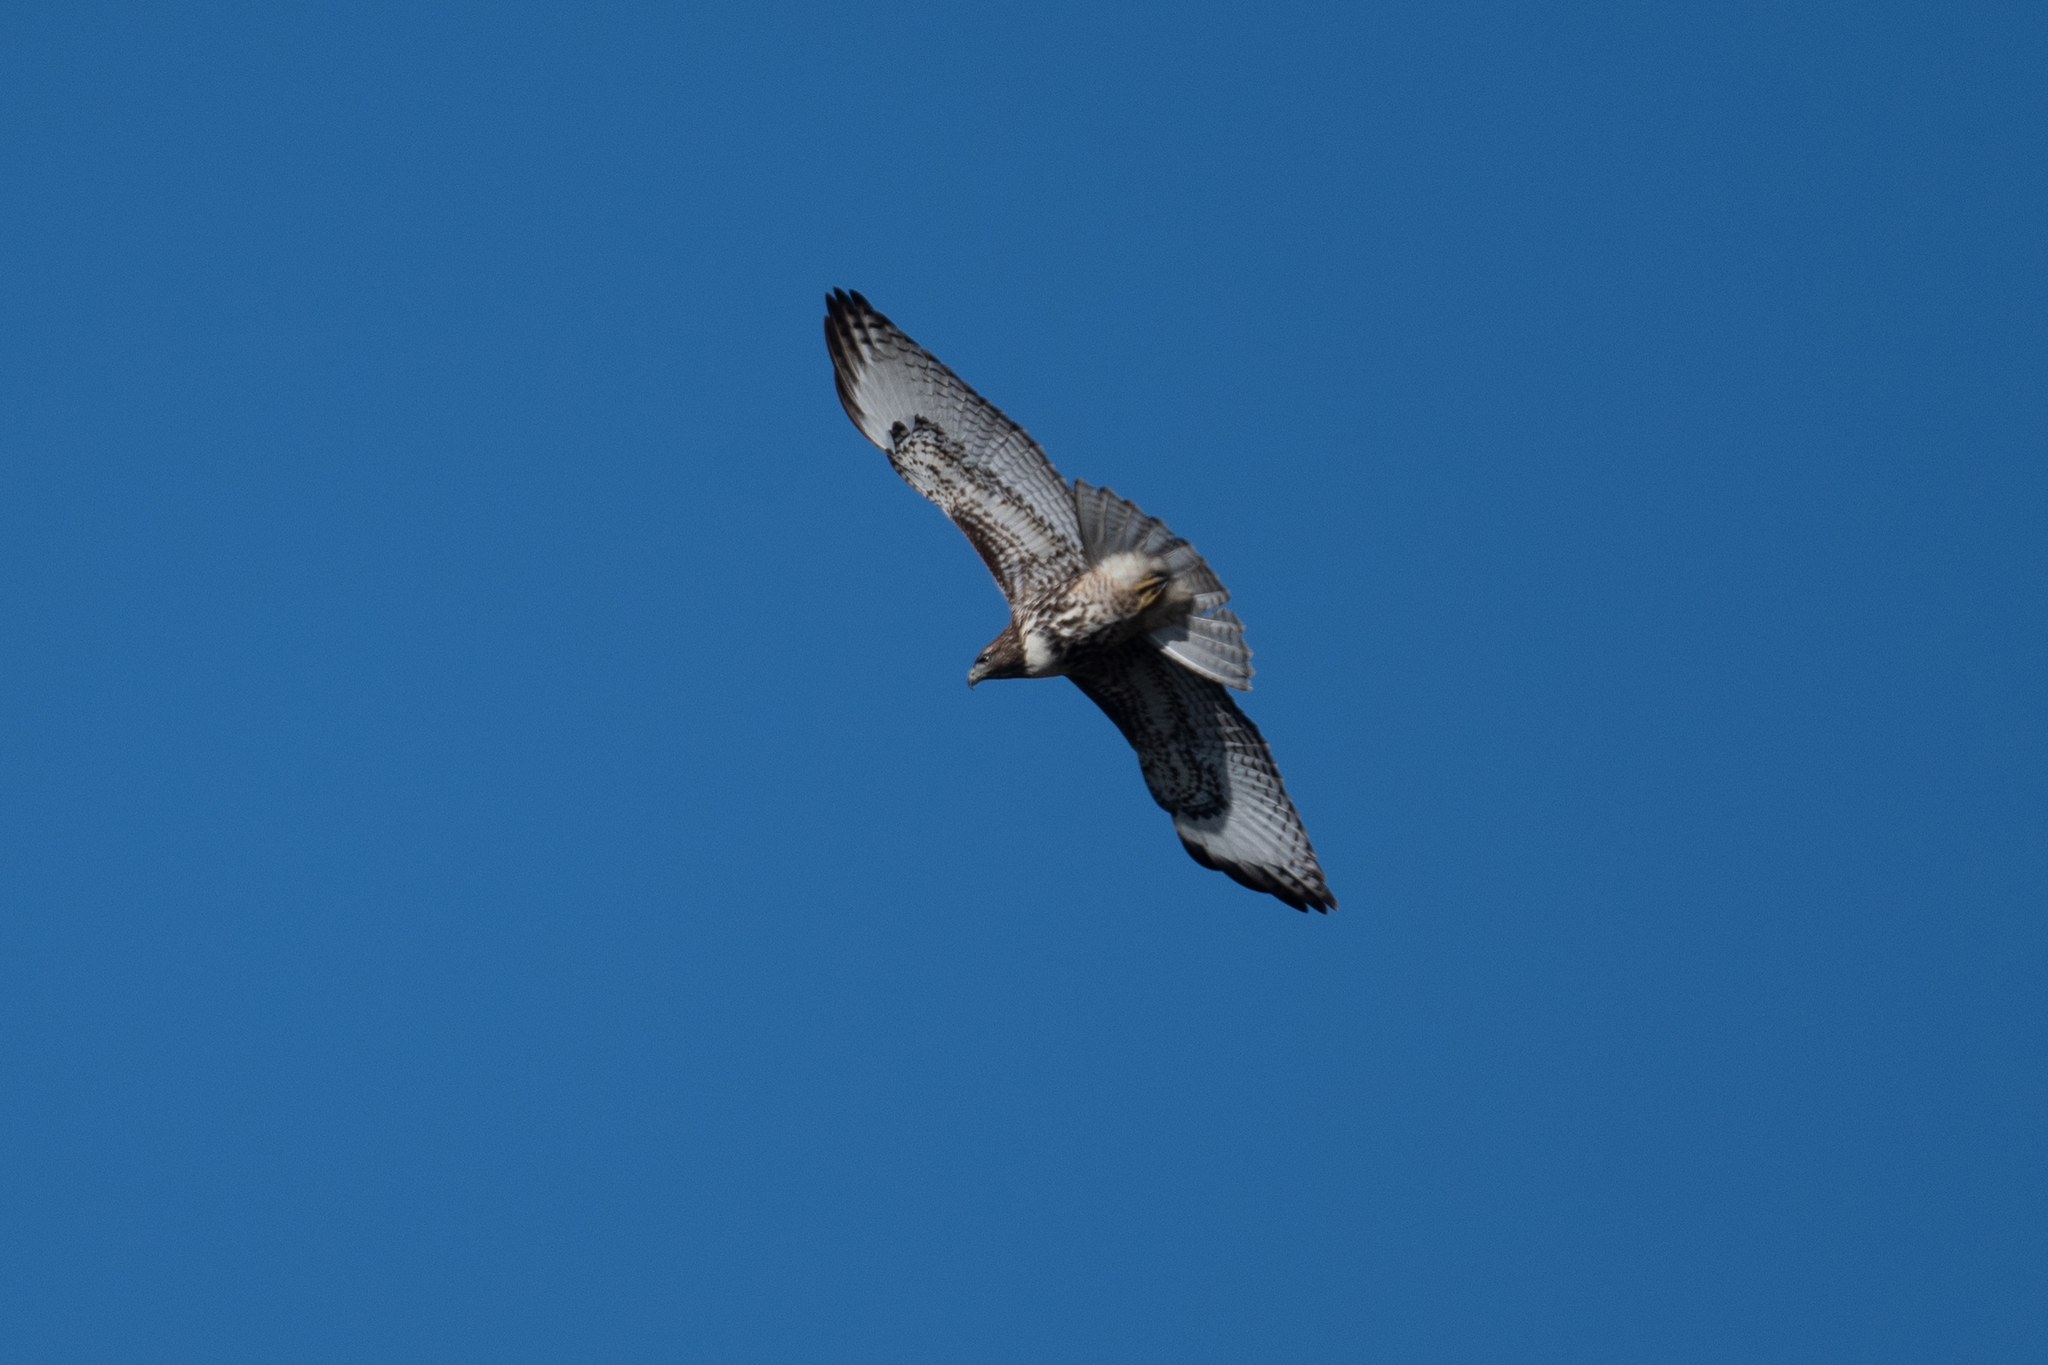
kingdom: Animalia
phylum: Chordata
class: Aves
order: Accipitriformes
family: Accipitridae
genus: Buteo
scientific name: Buteo jamaicensis
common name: Red-tailed hawk
